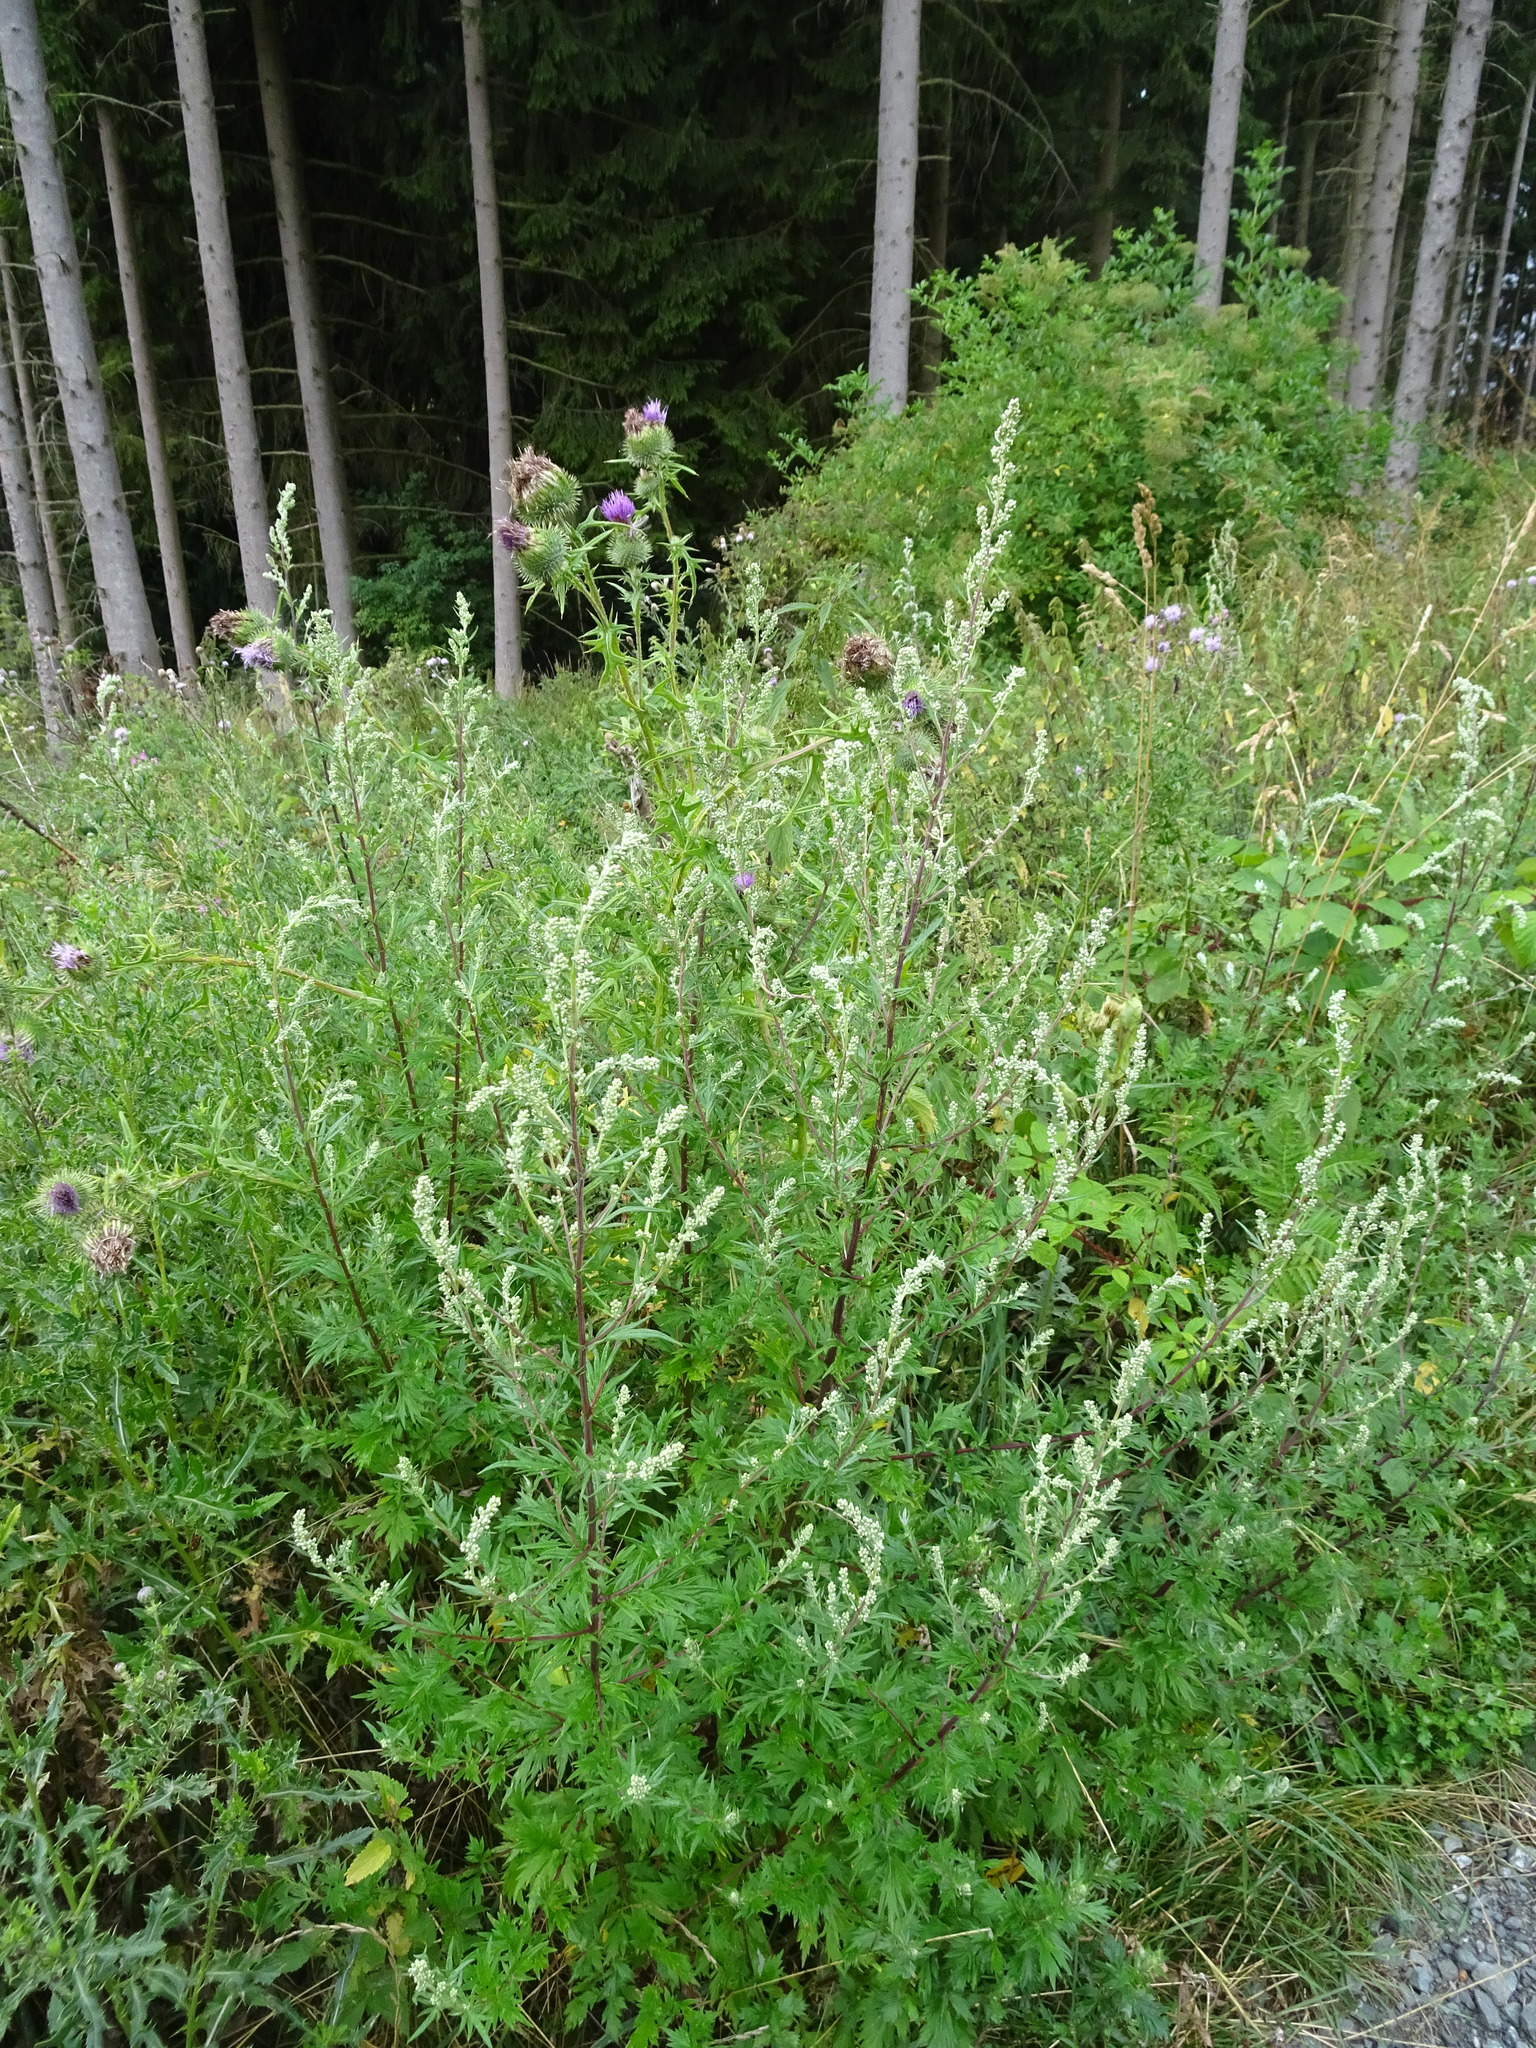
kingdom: Plantae
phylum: Tracheophyta
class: Magnoliopsida
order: Asterales
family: Asteraceae
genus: Artemisia
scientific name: Artemisia vulgaris
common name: Mugwort
